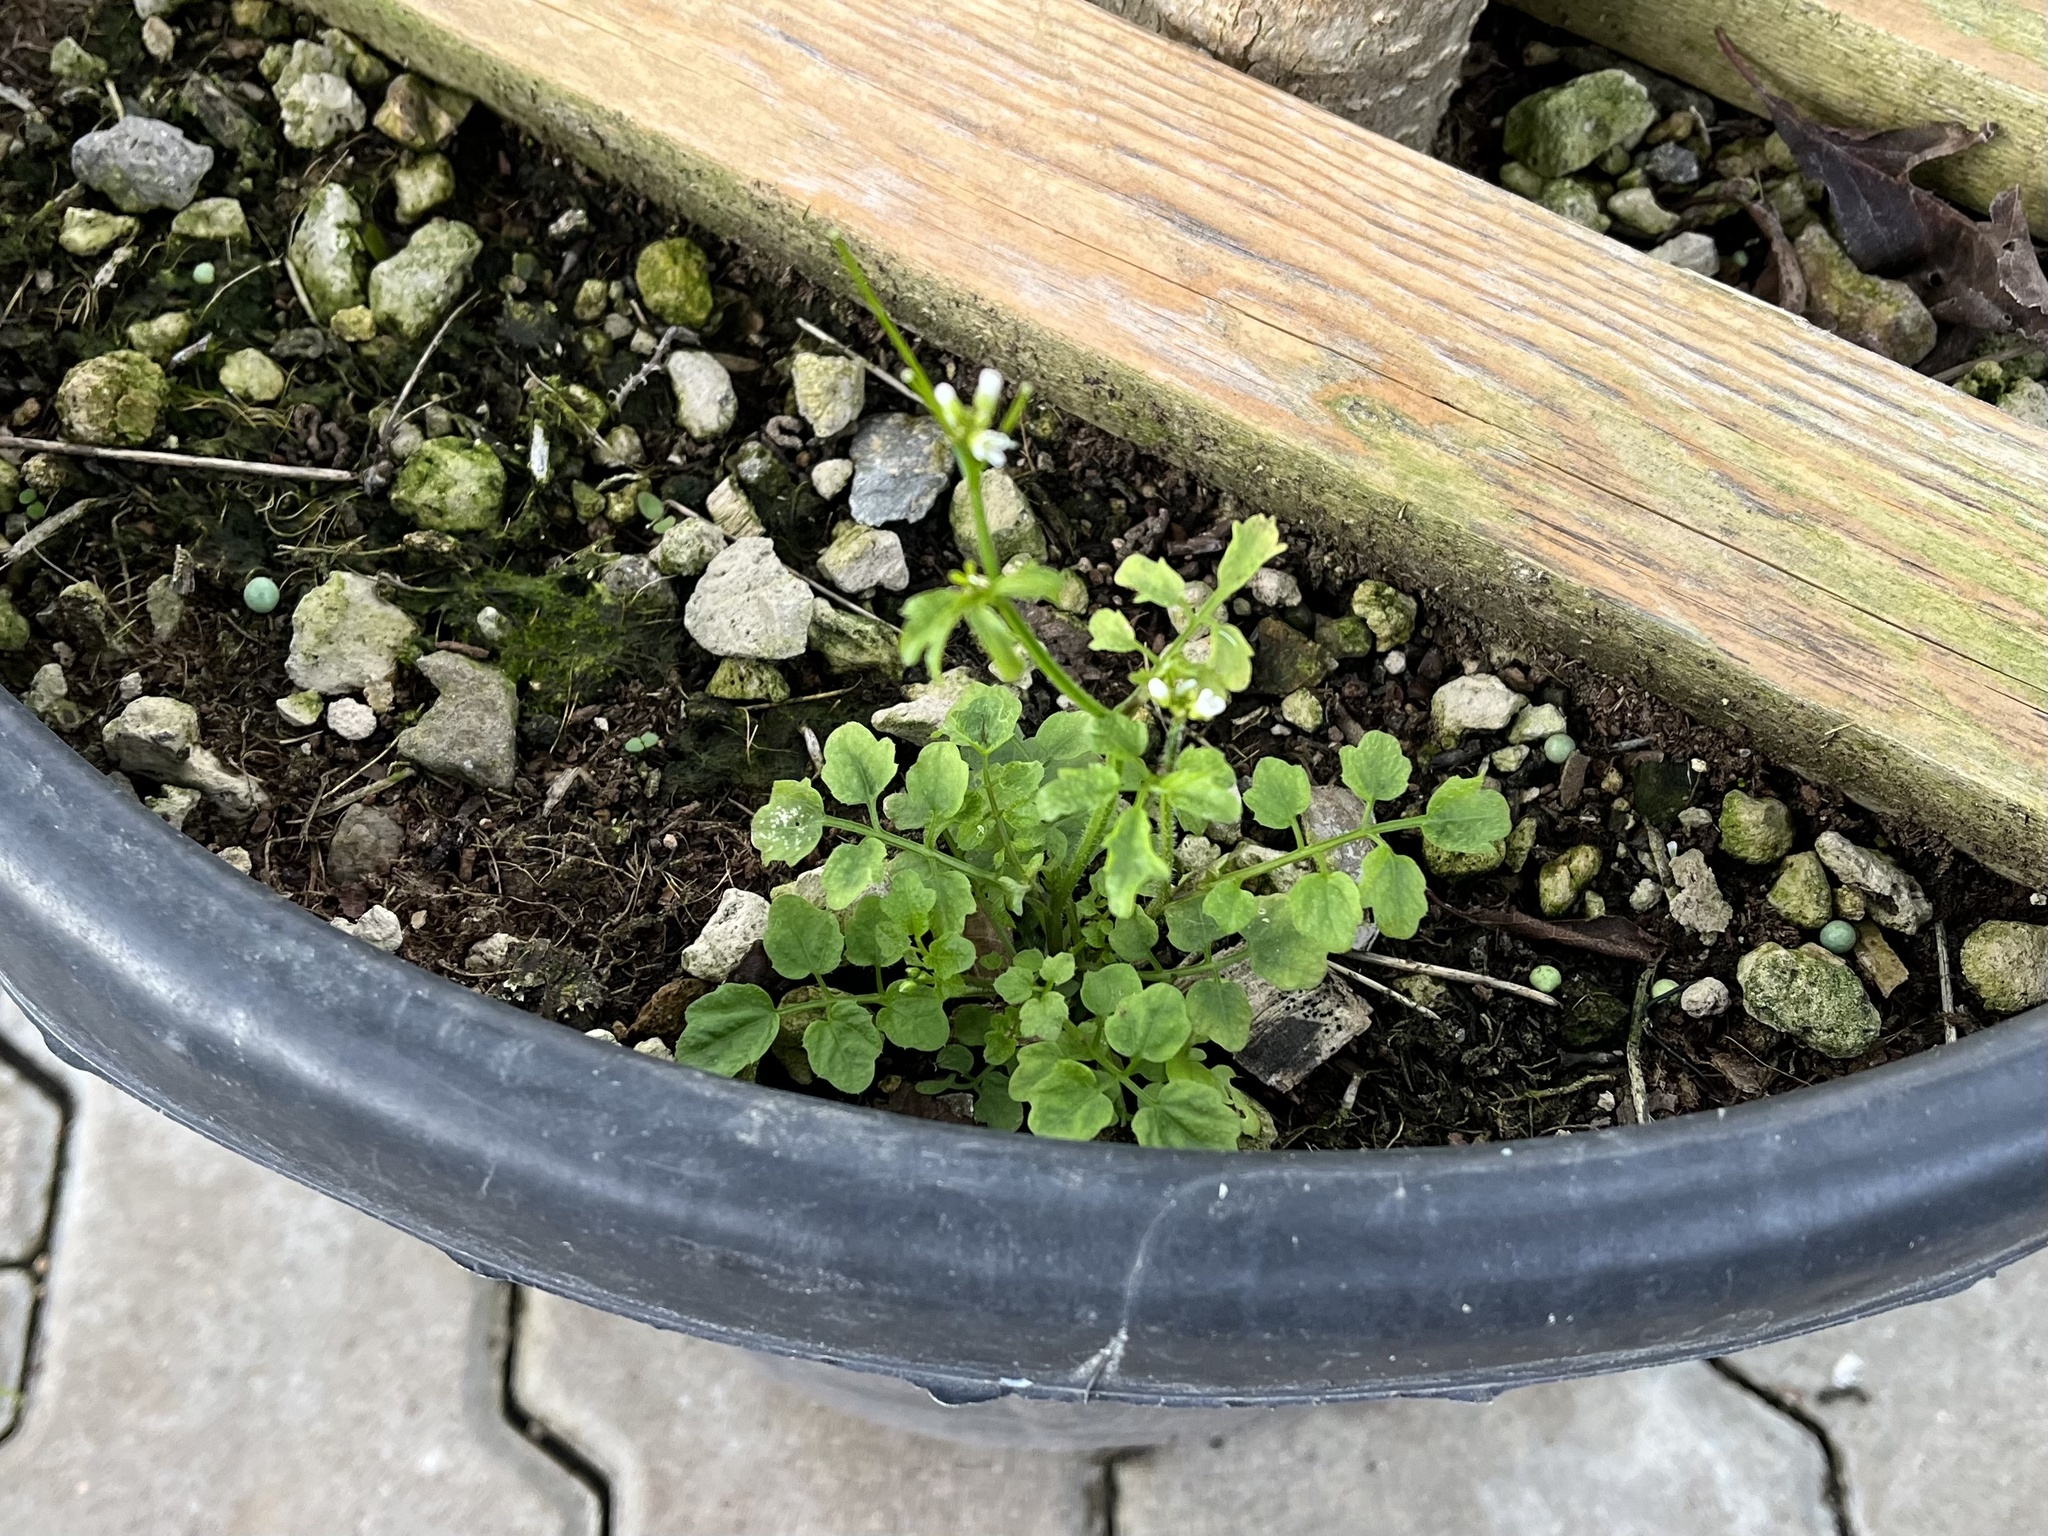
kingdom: Plantae
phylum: Tracheophyta
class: Magnoliopsida
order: Brassicales
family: Brassicaceae
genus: Cardamine
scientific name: Cardamine flexuosa
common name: Woodland bittercress
